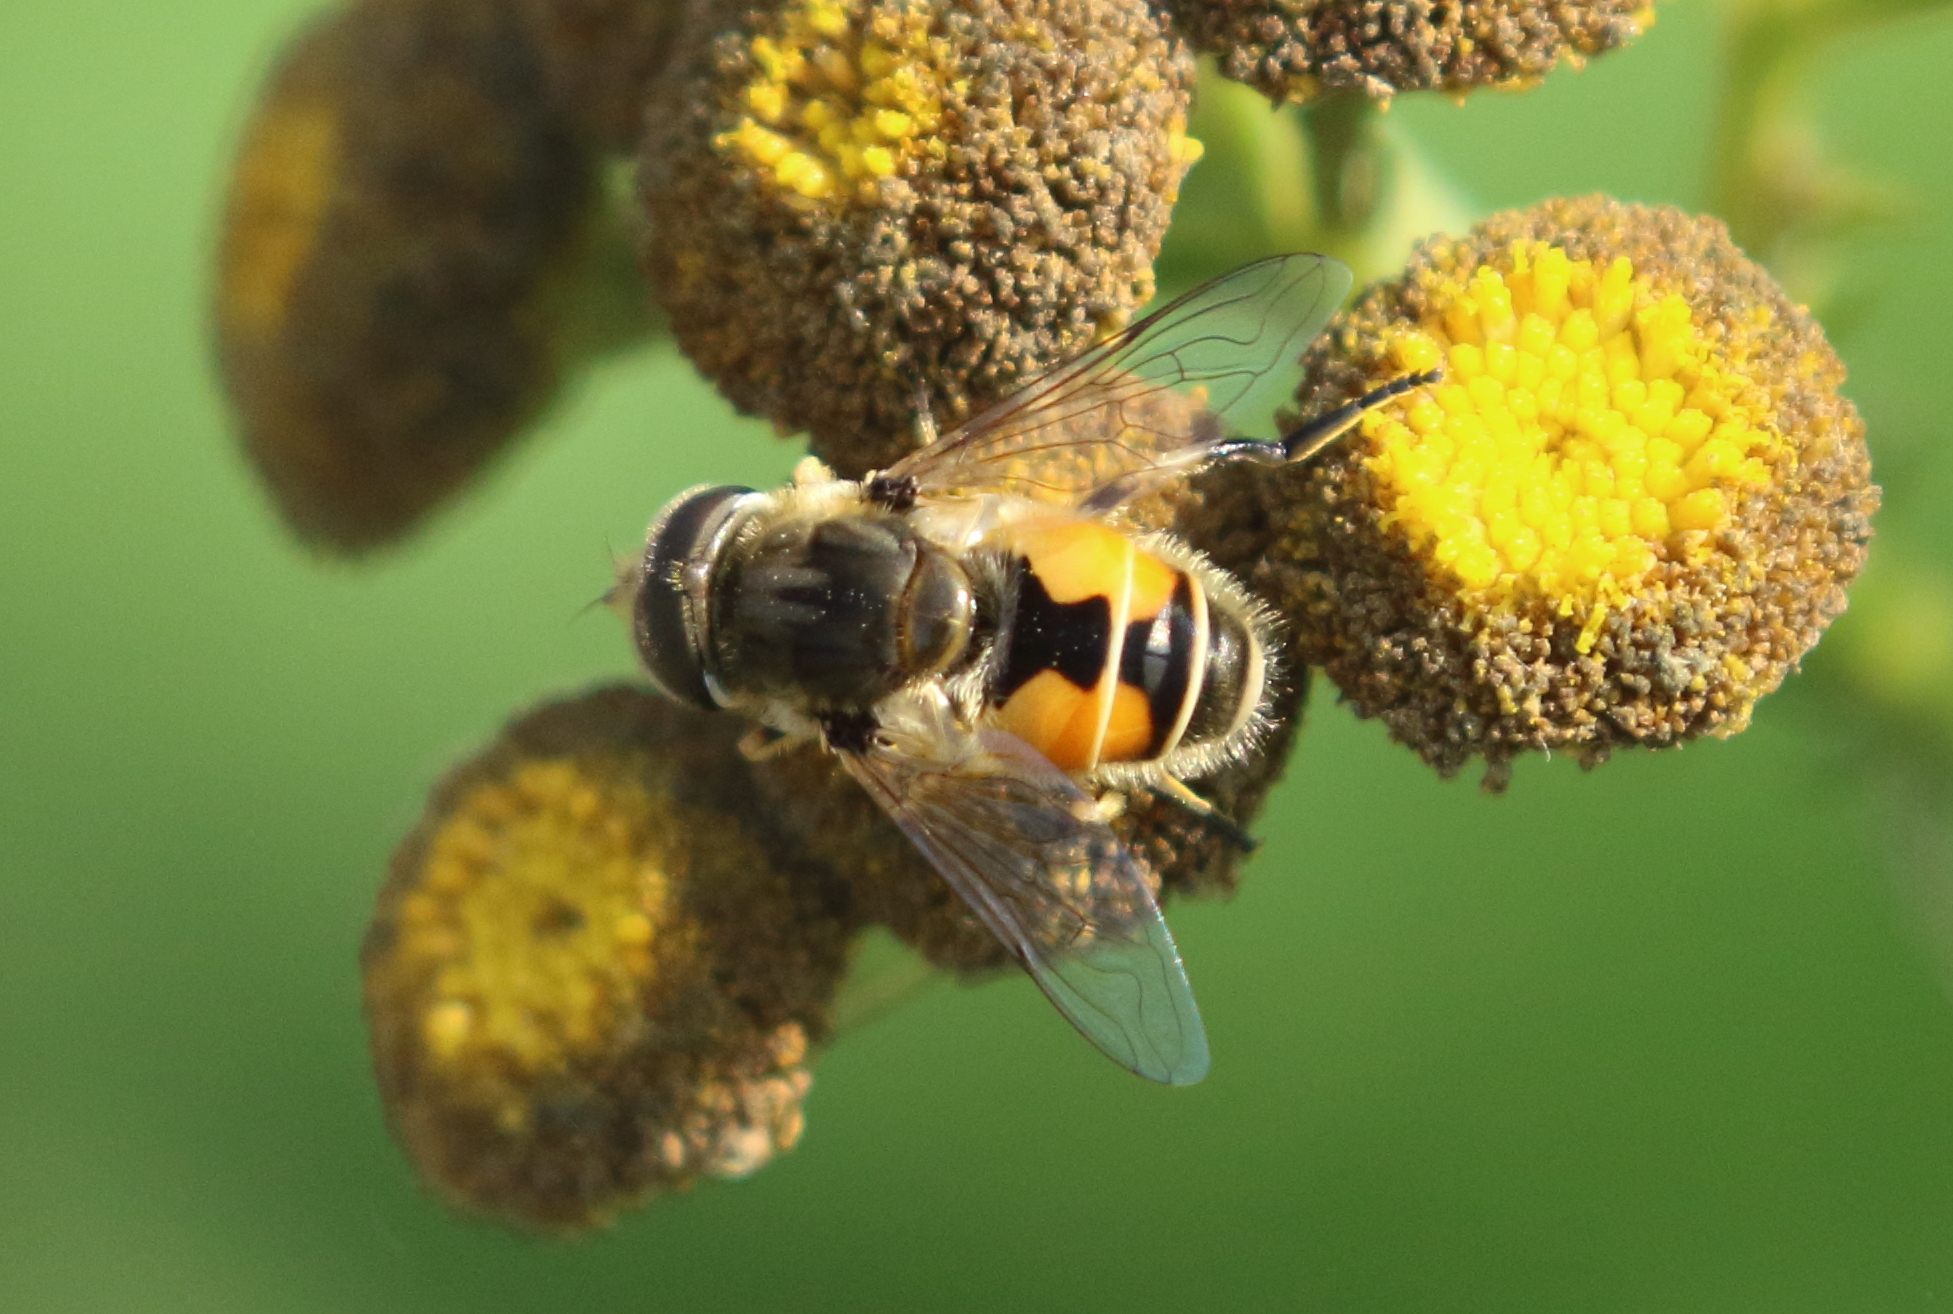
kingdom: Animalia
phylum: Arthropoda
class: Insecta
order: Diptera
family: Syrphidae
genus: Eristalis
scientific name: Eristalis arbustorum
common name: Hover fly
